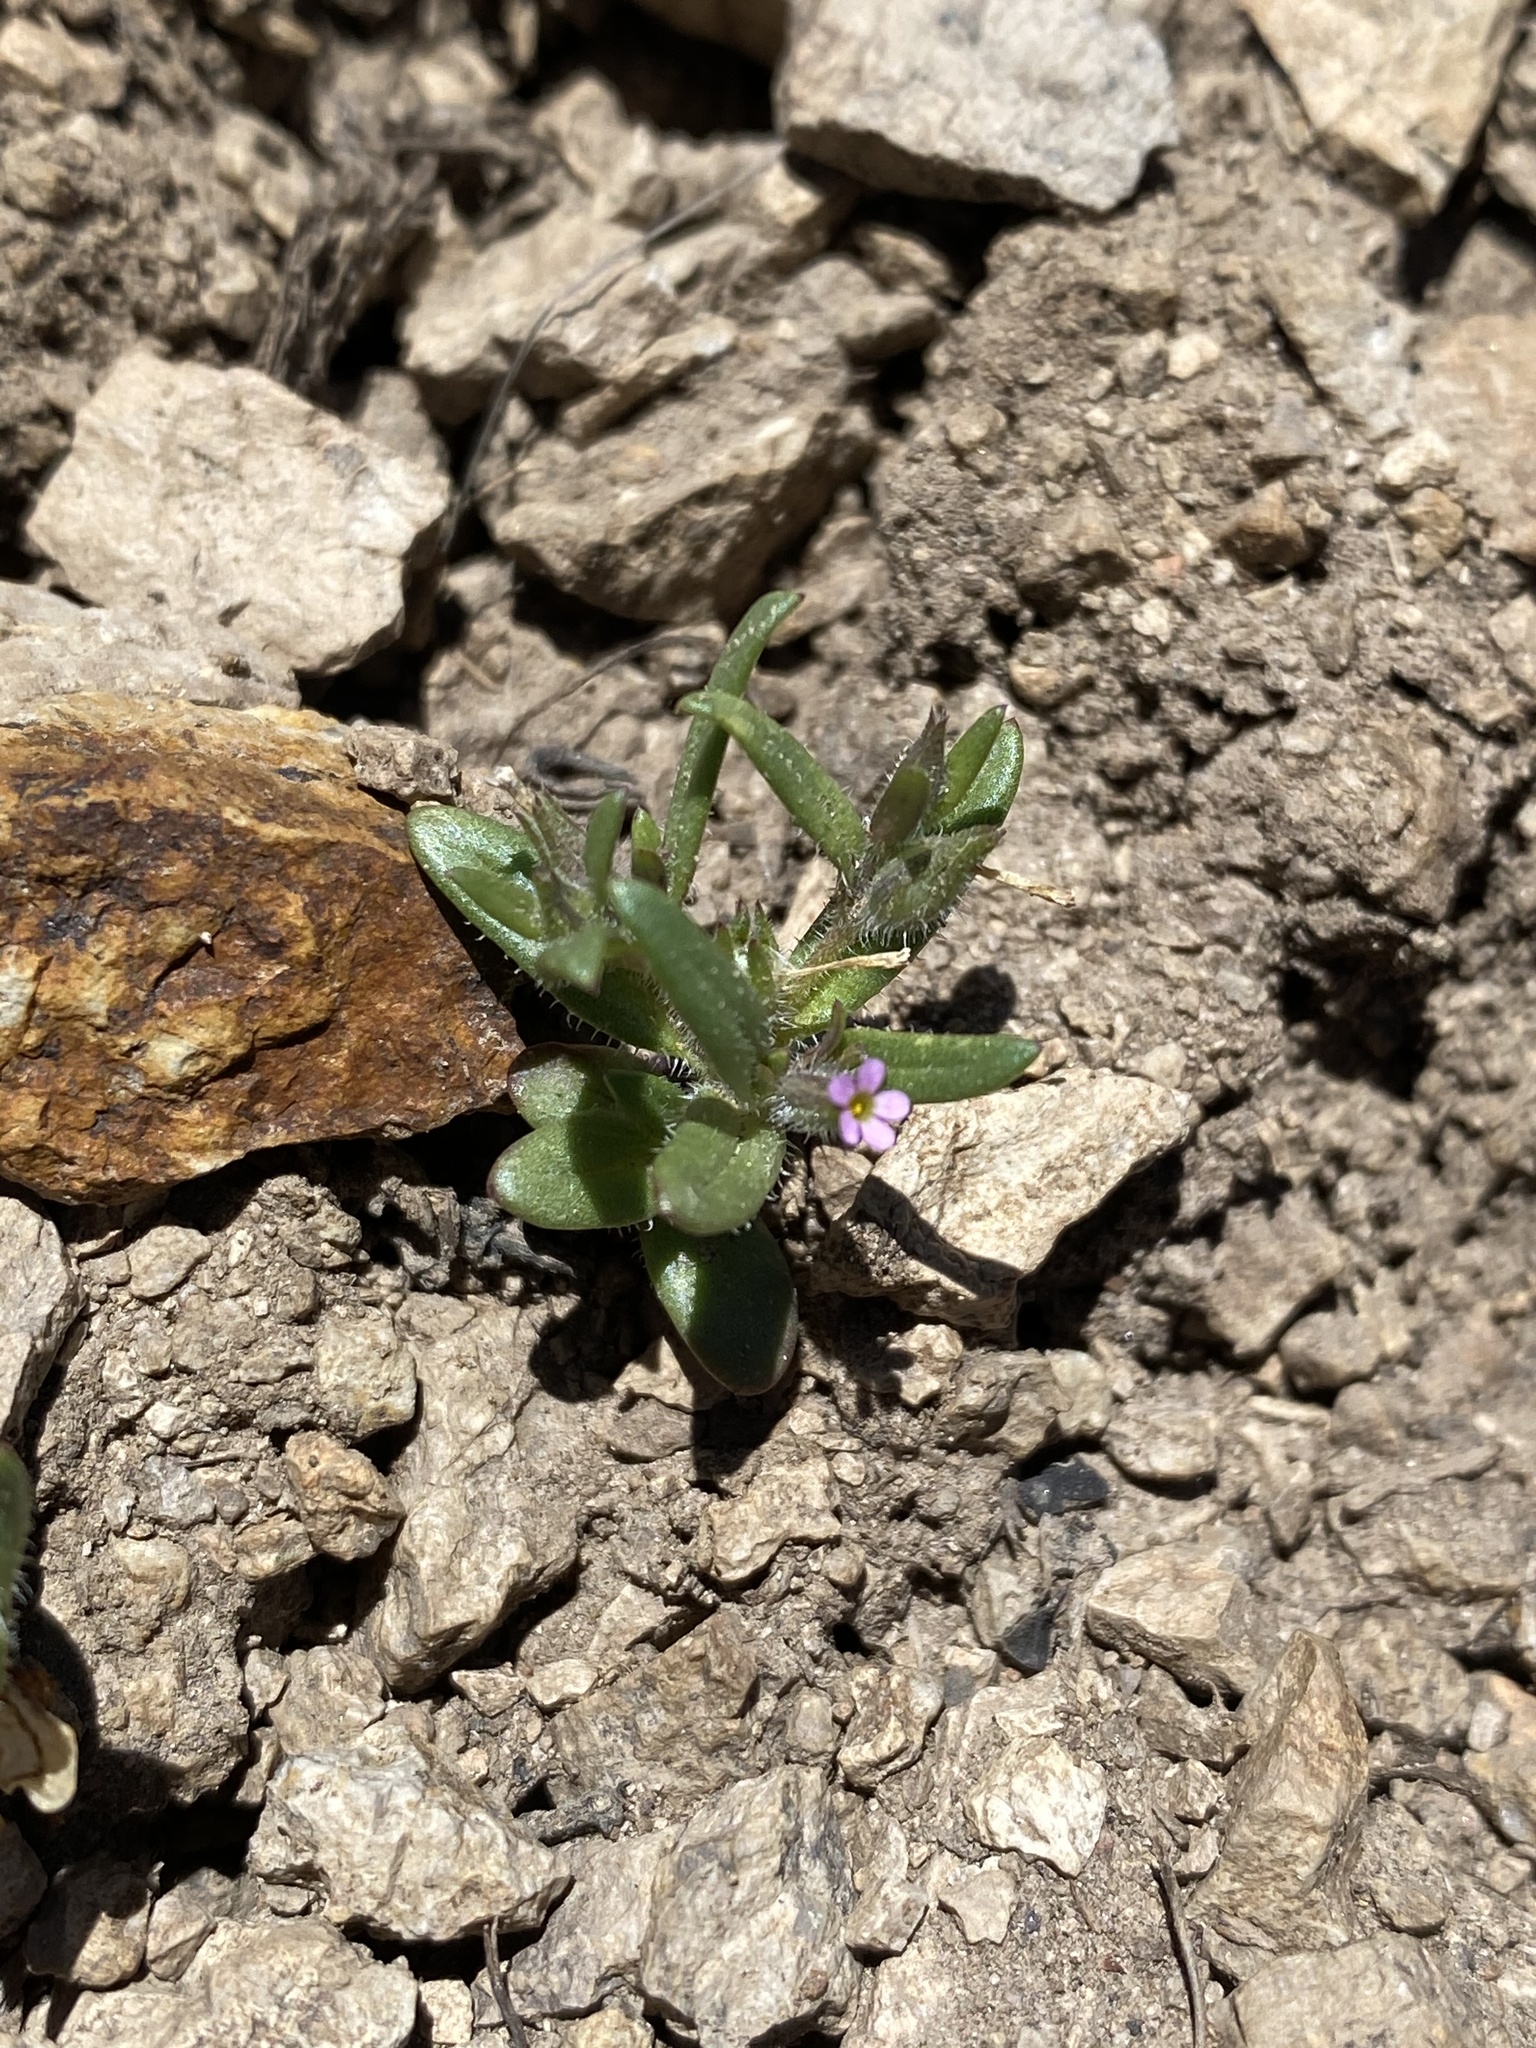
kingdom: Plantae
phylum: Tracheophyta
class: Magnoliopsida
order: Ericales
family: Polemoniaceae
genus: Phlox
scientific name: Phlox gracilis
